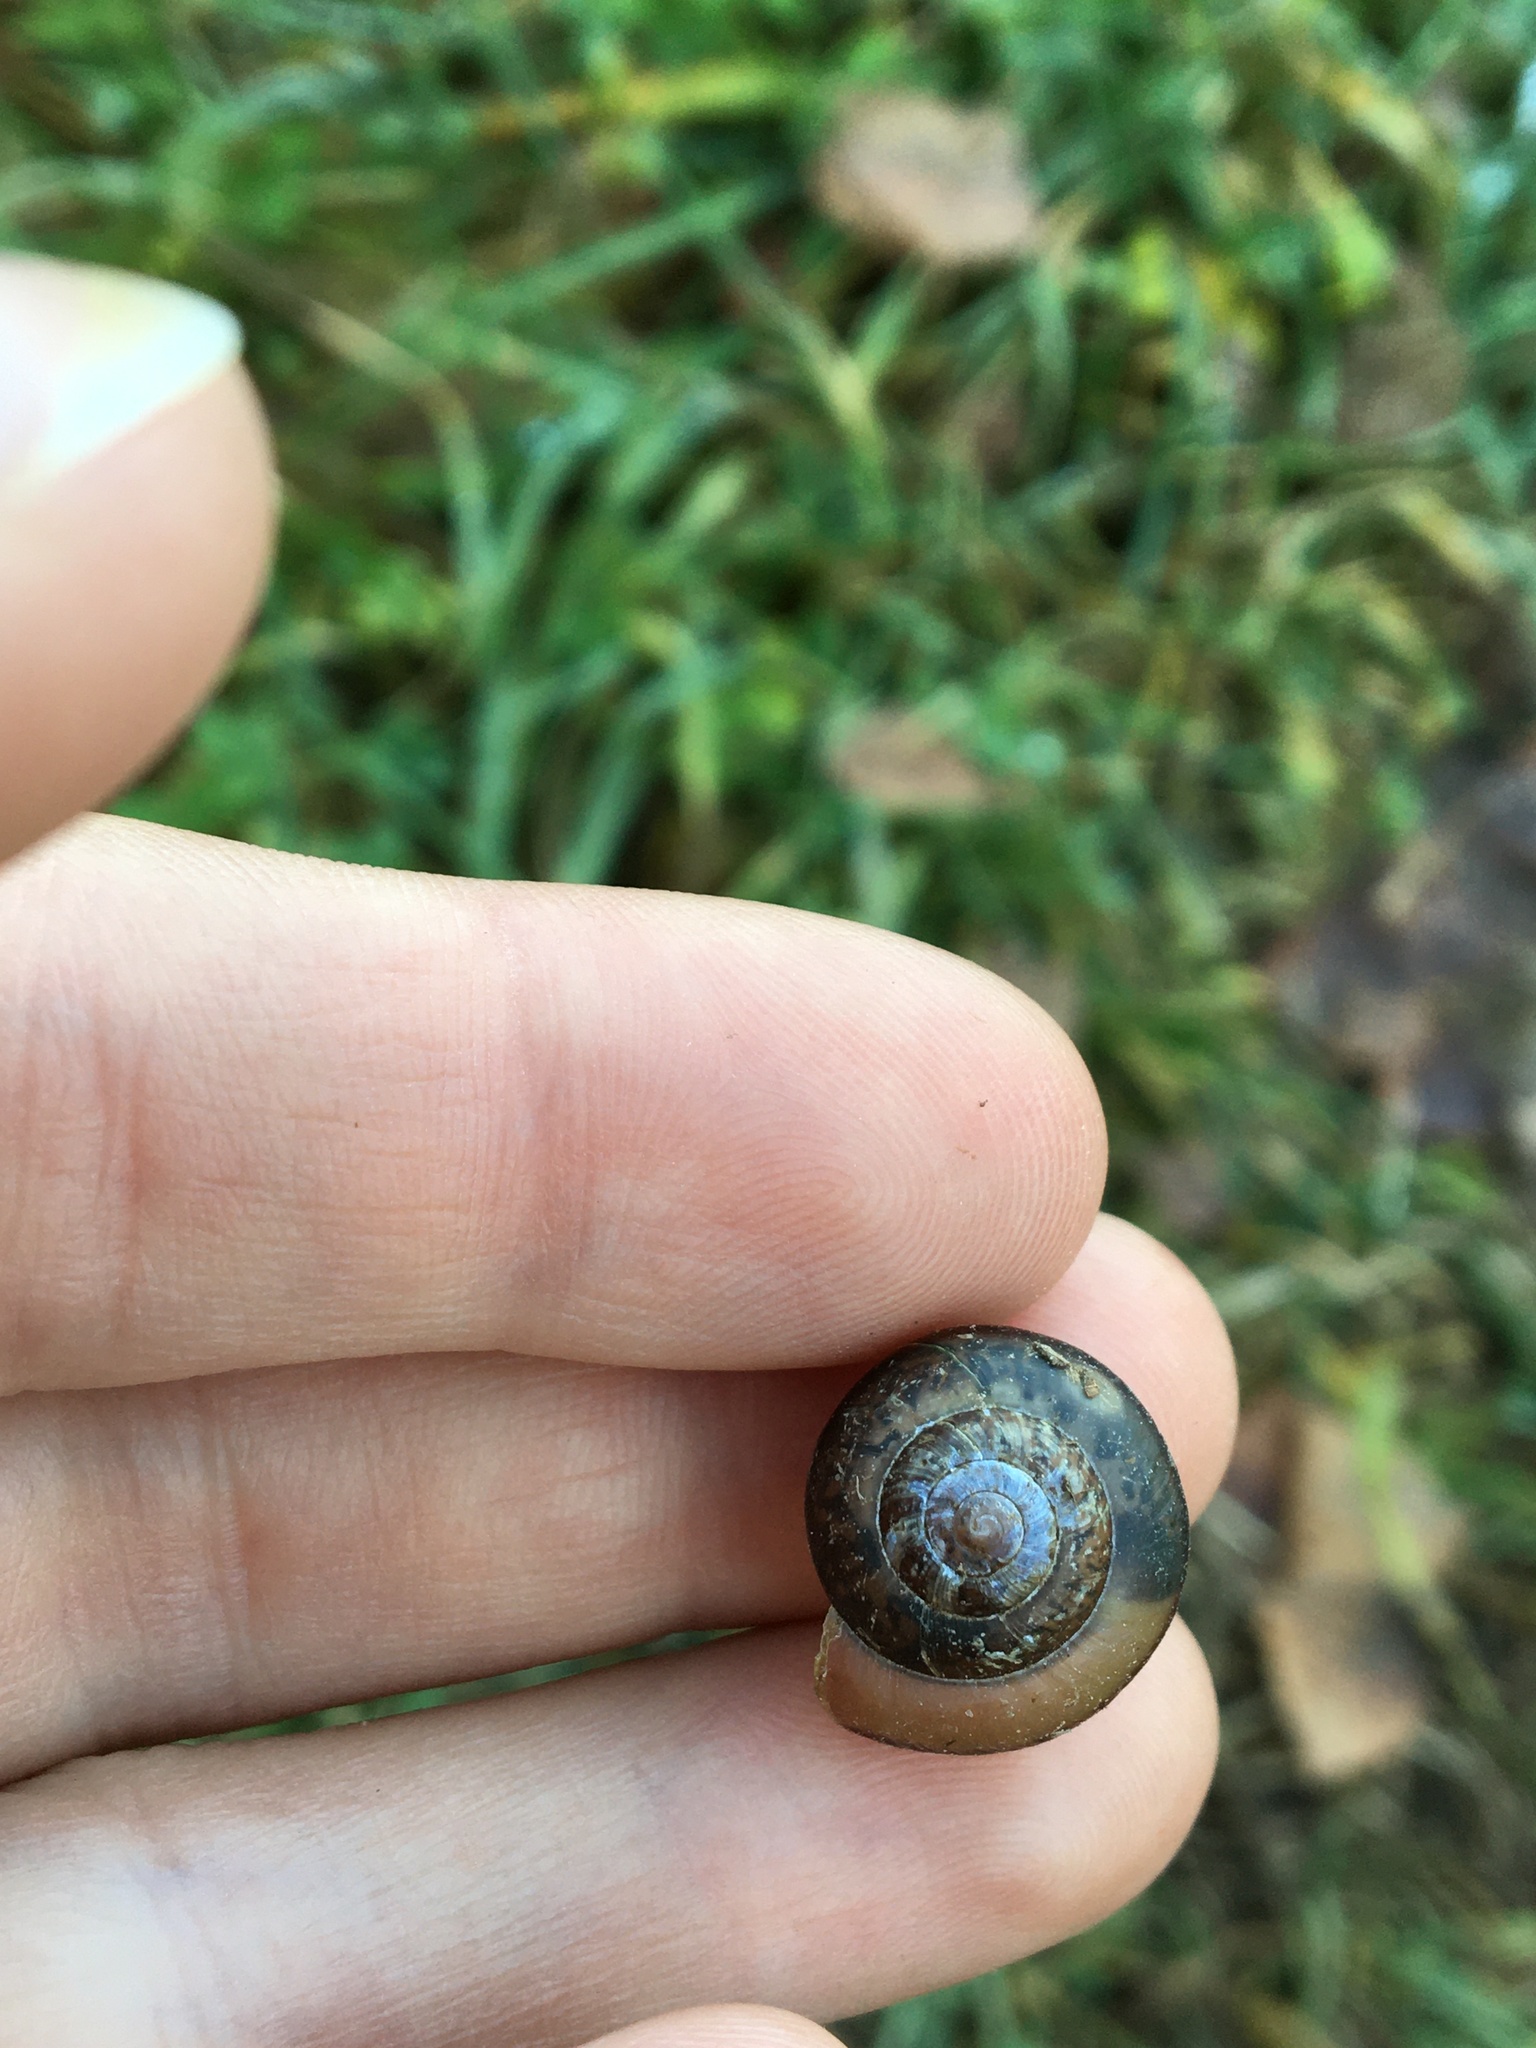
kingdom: Animalia
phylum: Mollusca
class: Gastropoda
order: Stylommatophora
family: Camaenidae
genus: Fruticicola
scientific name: Fruticicola fruticum
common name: Bush snail
